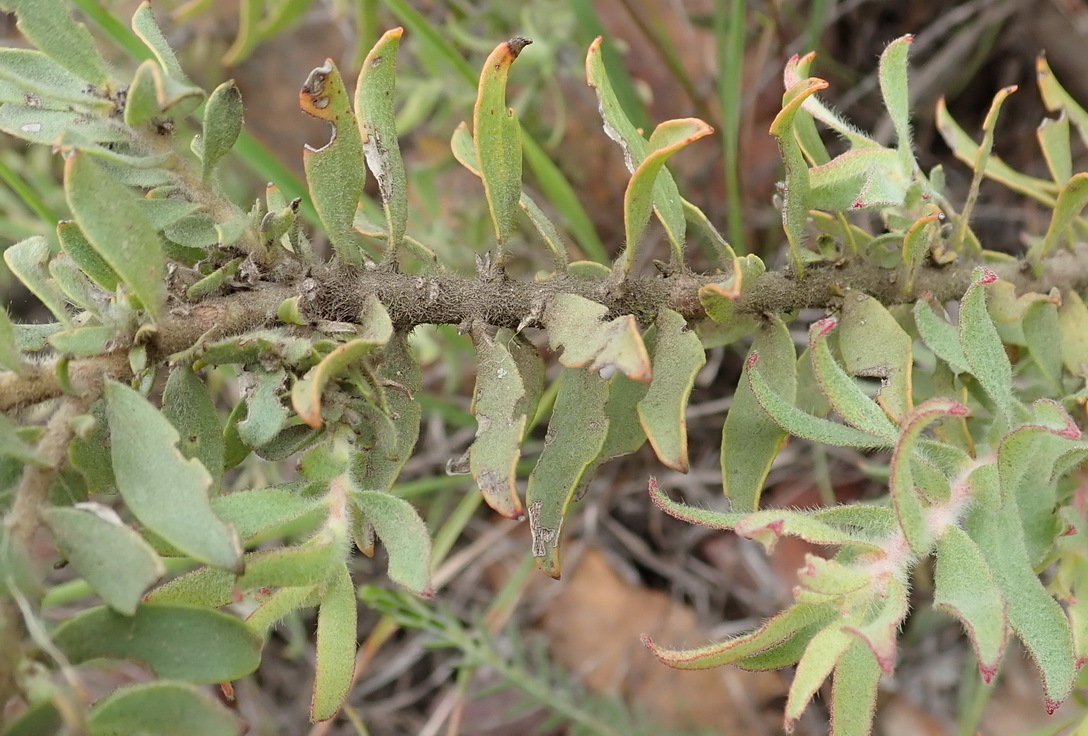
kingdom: Plantae
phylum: Tracheophyta
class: Magnoliopsida
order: Proteales
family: Proteaceae
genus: Leucospermum
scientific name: Leucospermum calligerum
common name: Arid pincushion
